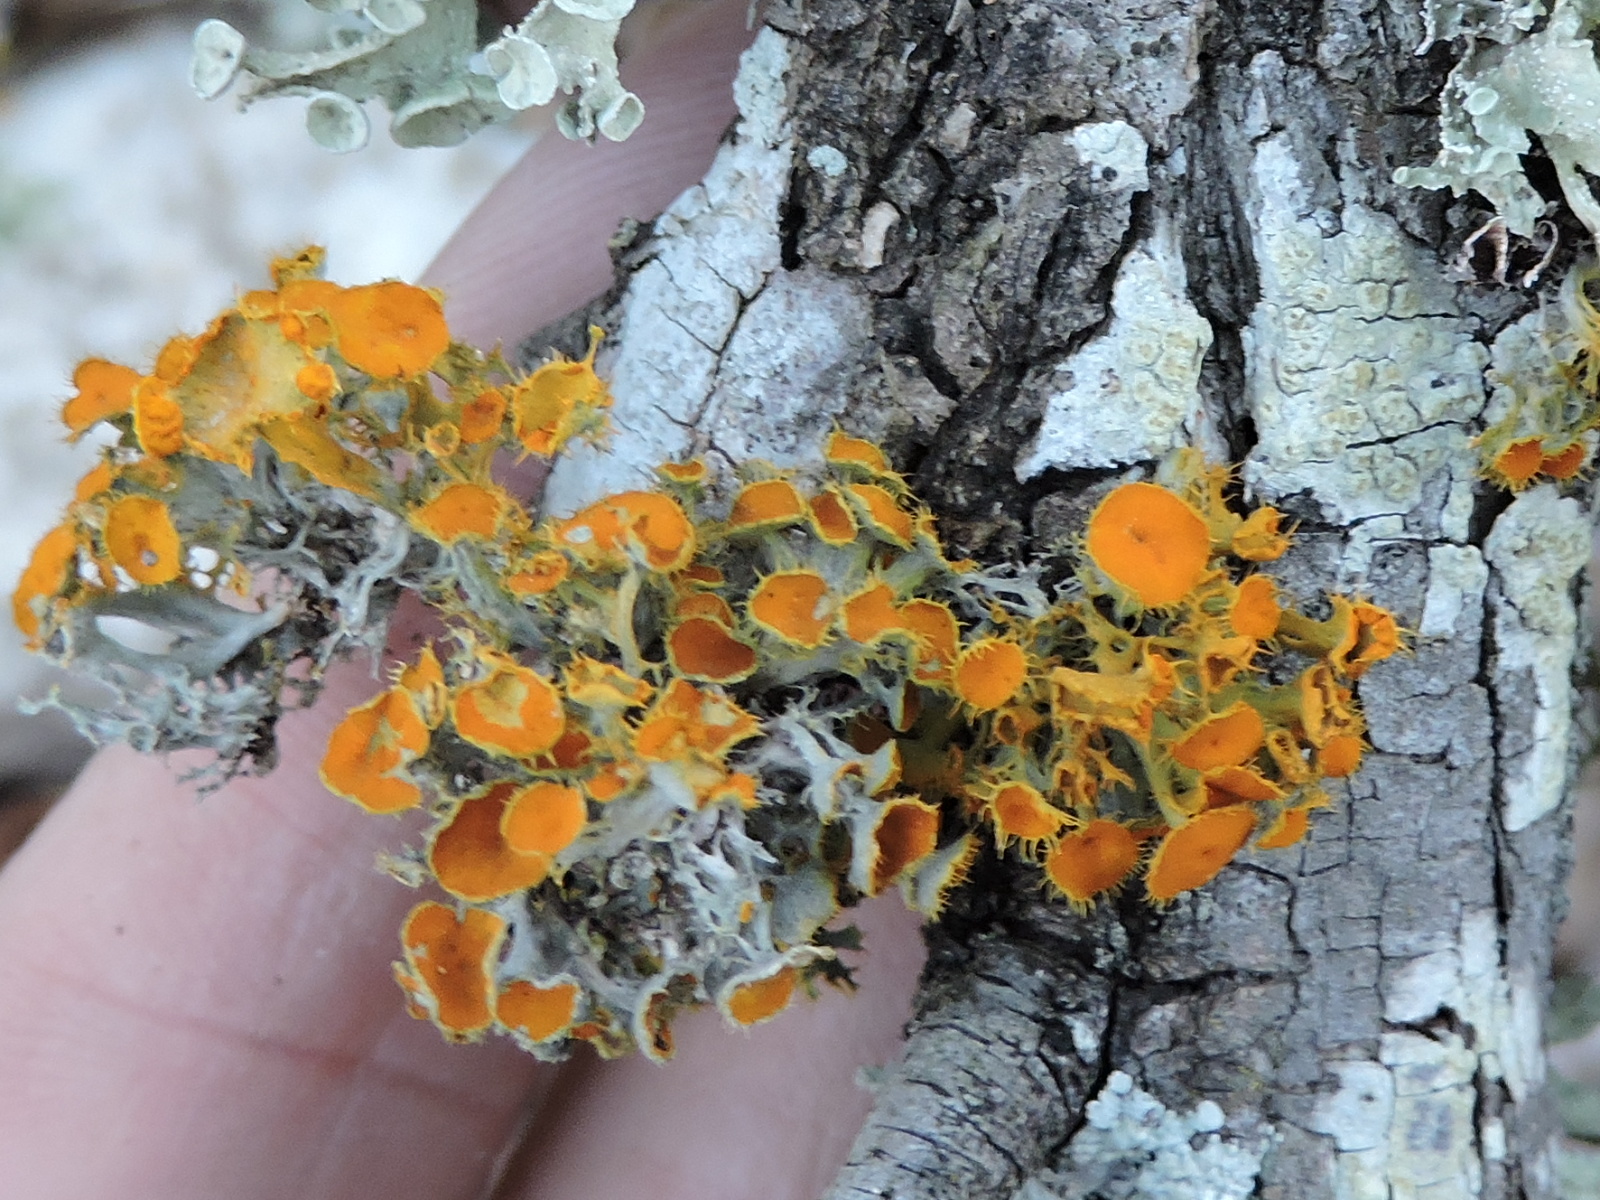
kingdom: Fungi
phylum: Ascomycota
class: Lecanoromycetes
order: Teloschistales
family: Teloschistaceae
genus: Niorma
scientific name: Niorma chrysophthalma
